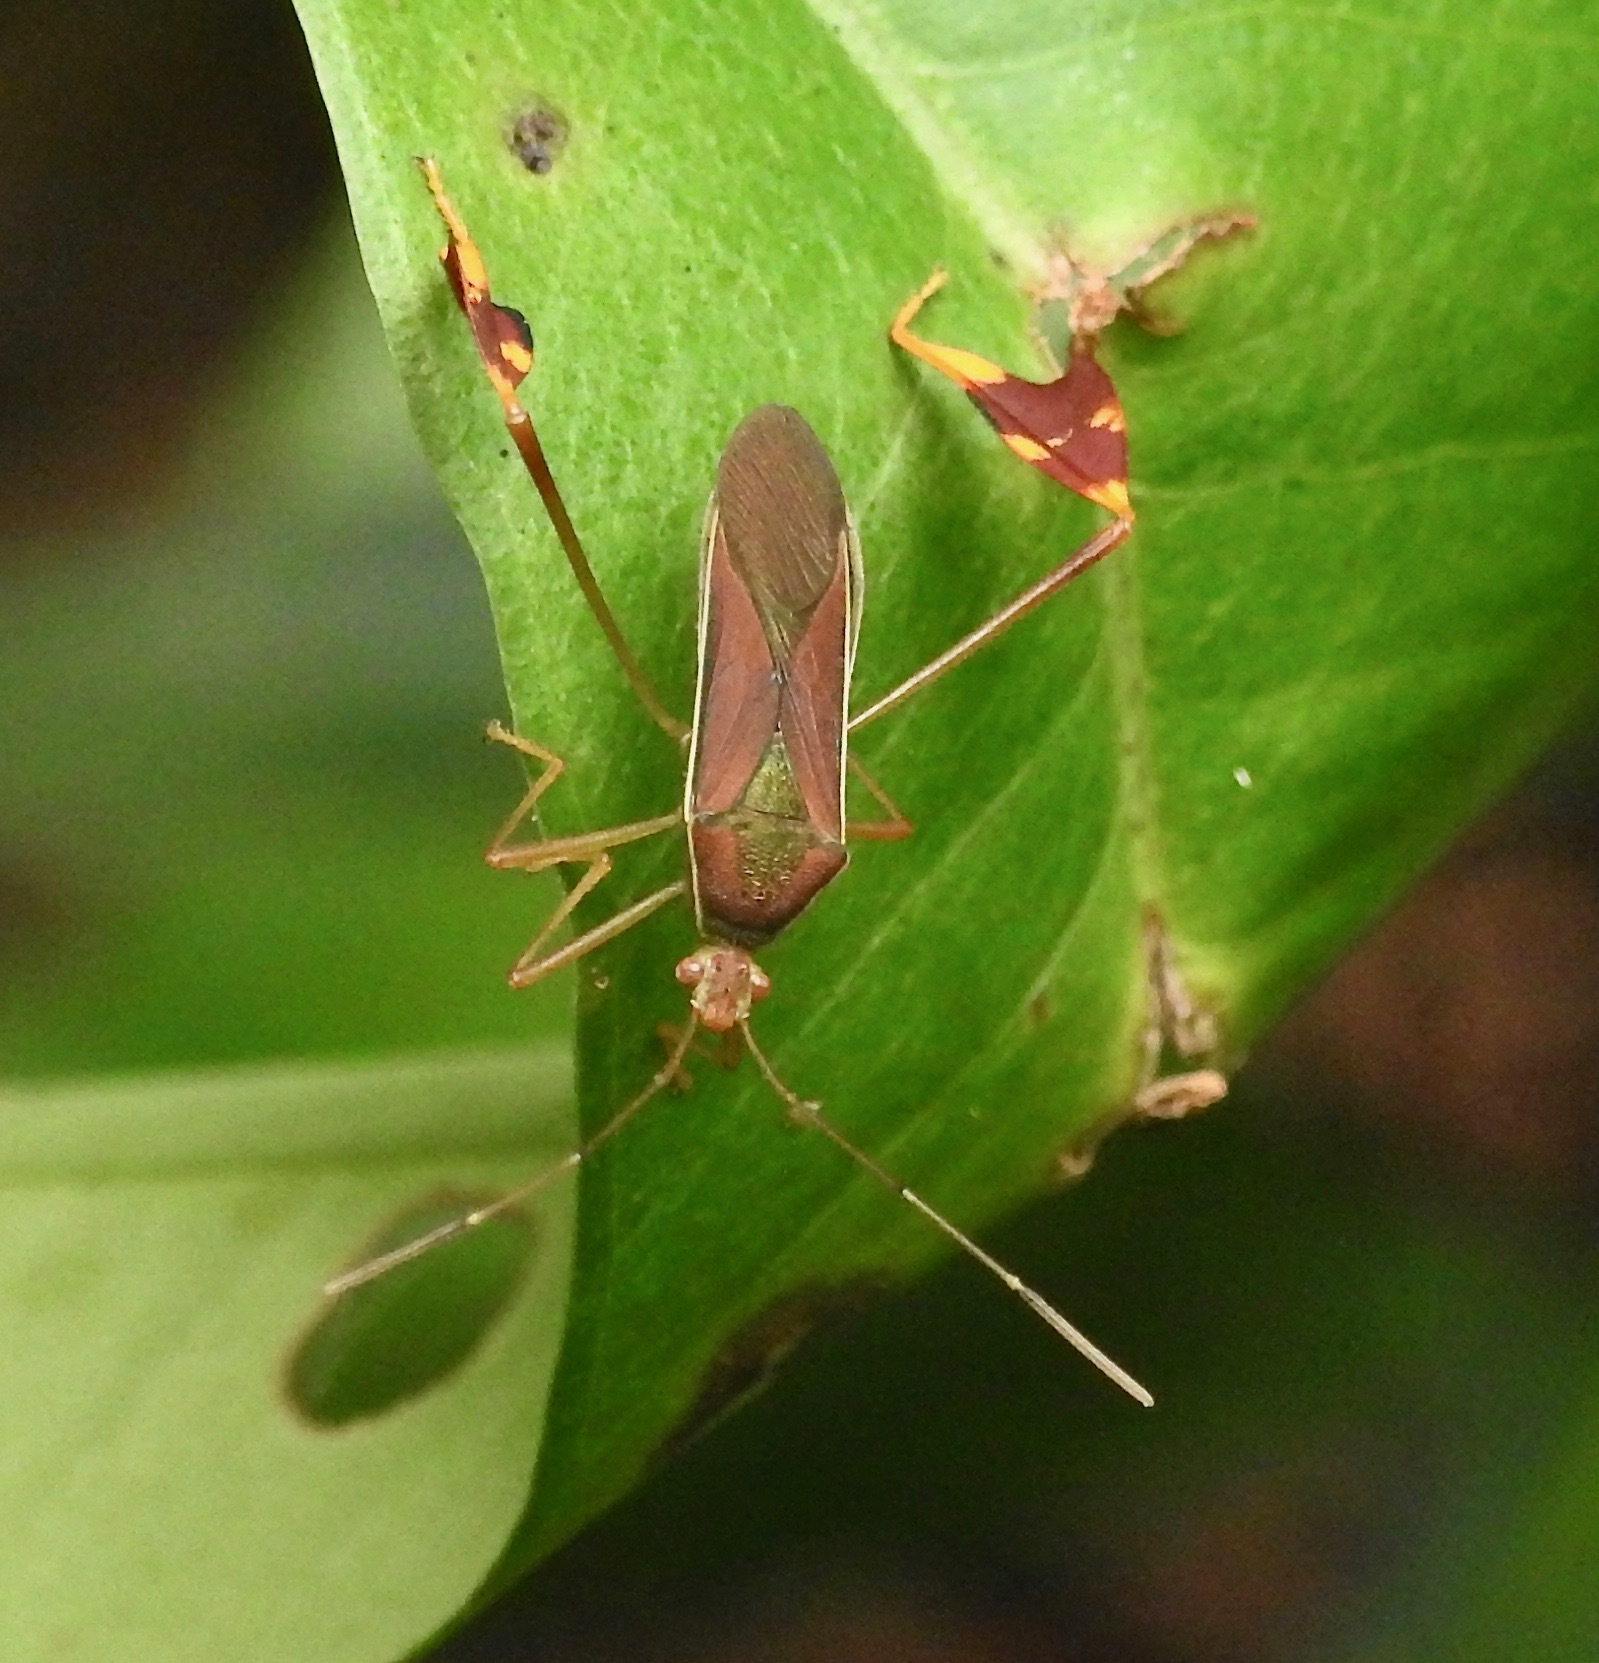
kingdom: Animalia
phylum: Arthropoda
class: Insecta
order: Hemiptera
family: Coreidae
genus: Anisoscelis
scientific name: Anisoscelis scutellaris
